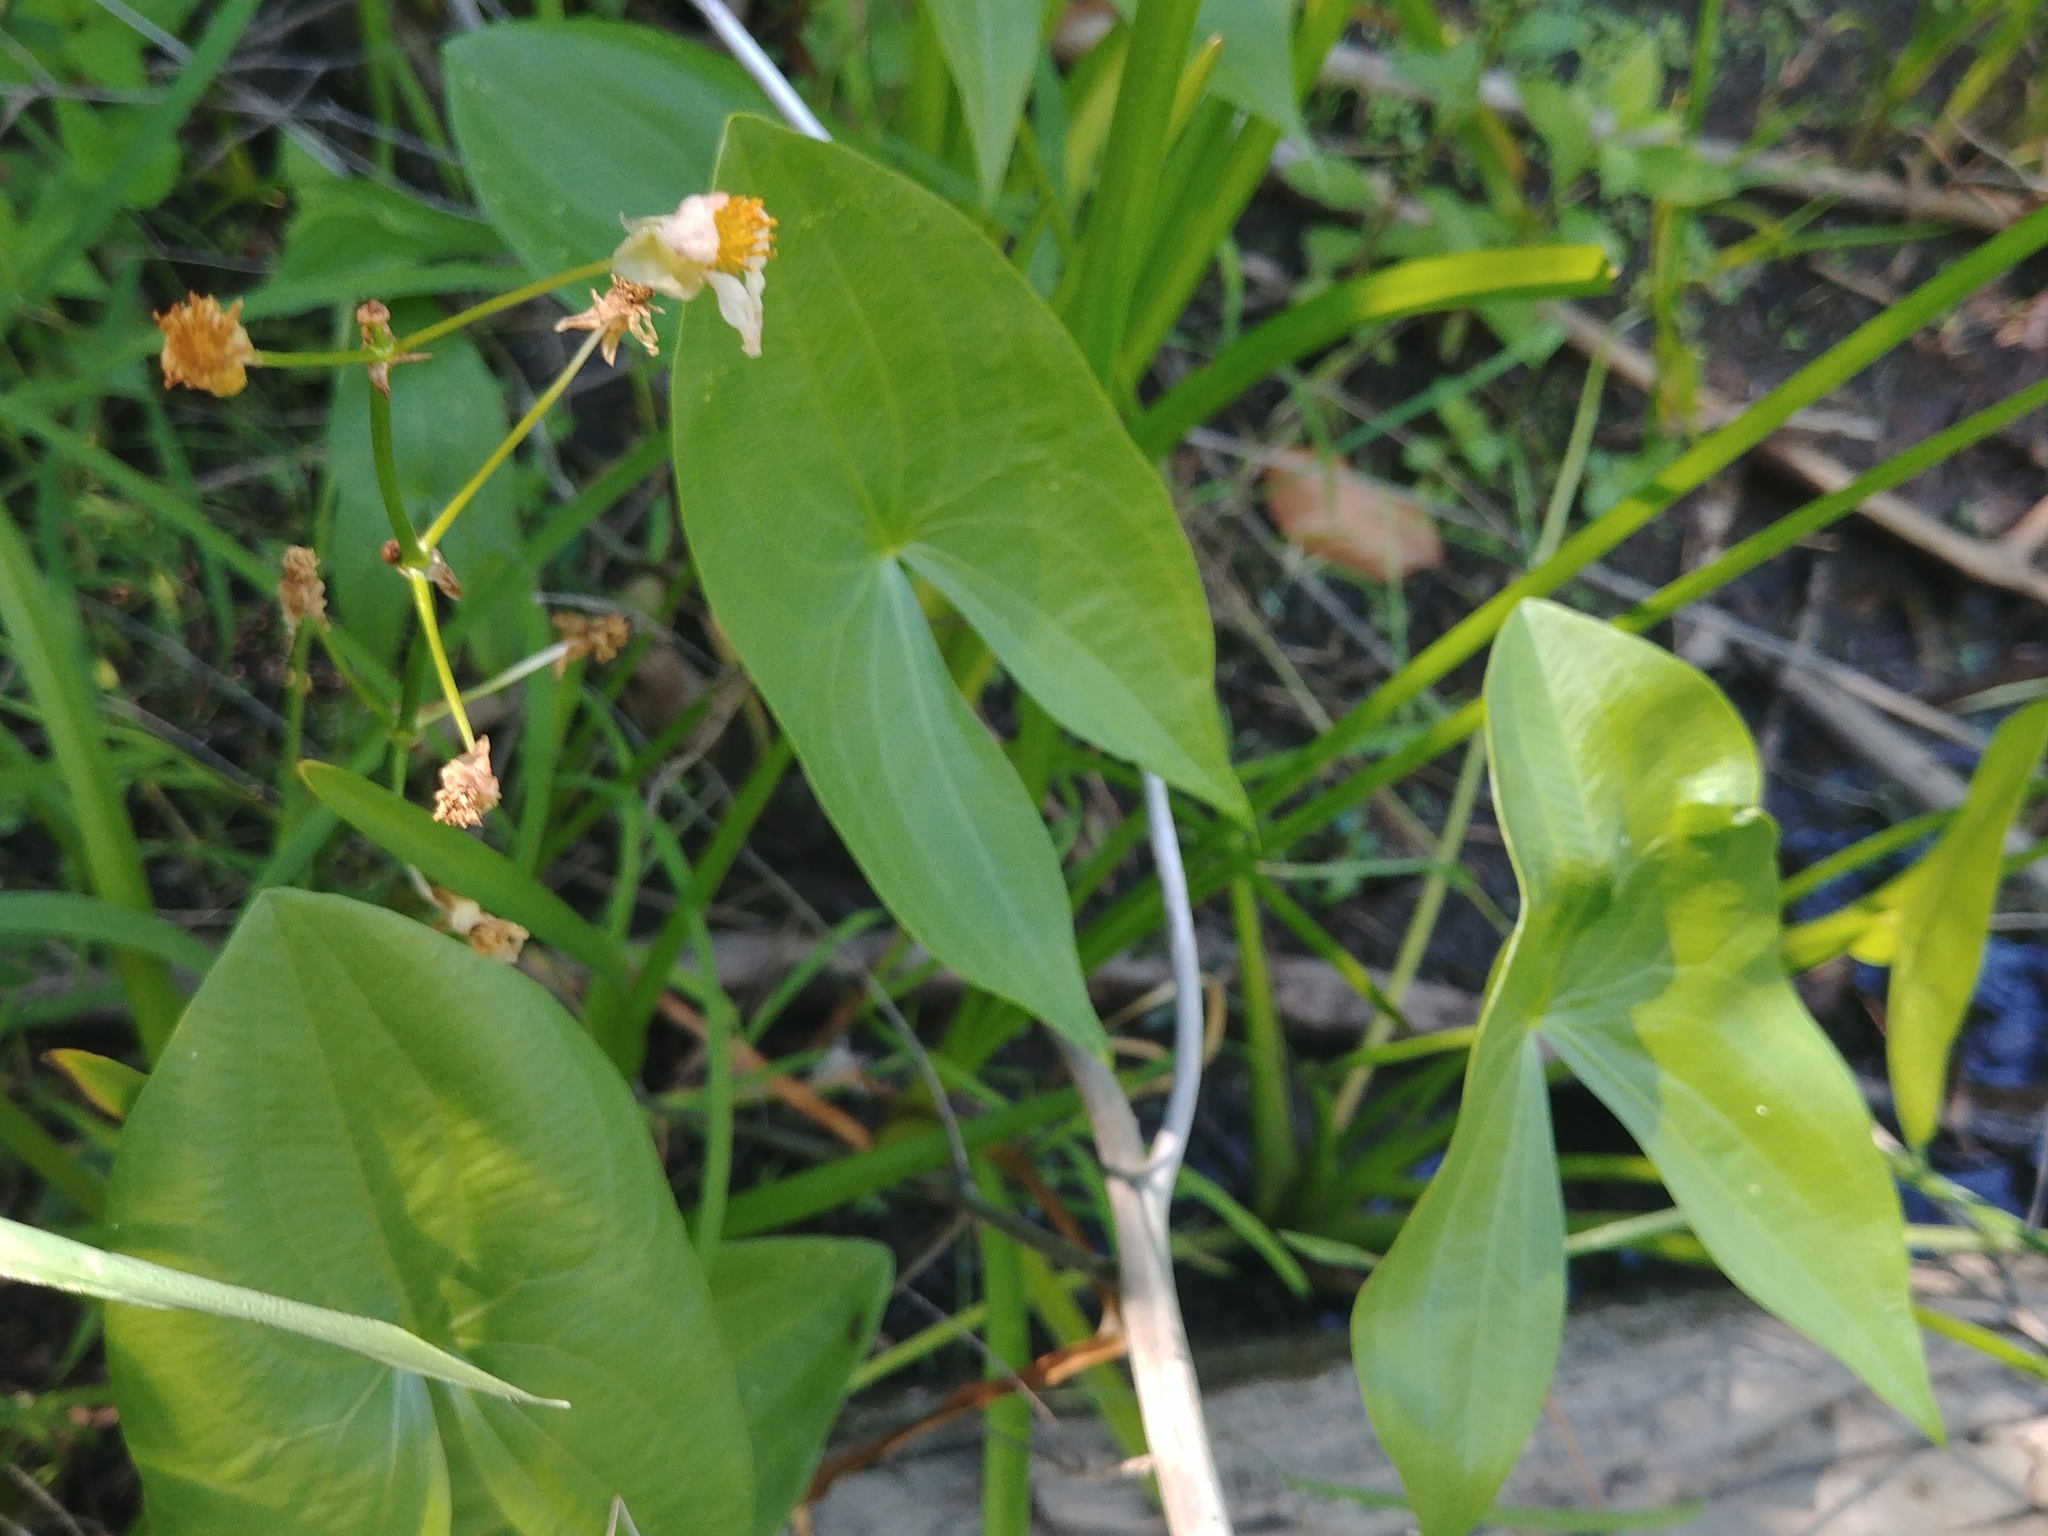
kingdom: Plantae
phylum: Tracheophyta
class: Liliopsida
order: Alismatales
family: Alismataceae
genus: Sagittaria
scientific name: Sagittaria latifolia
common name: Duck-potato
